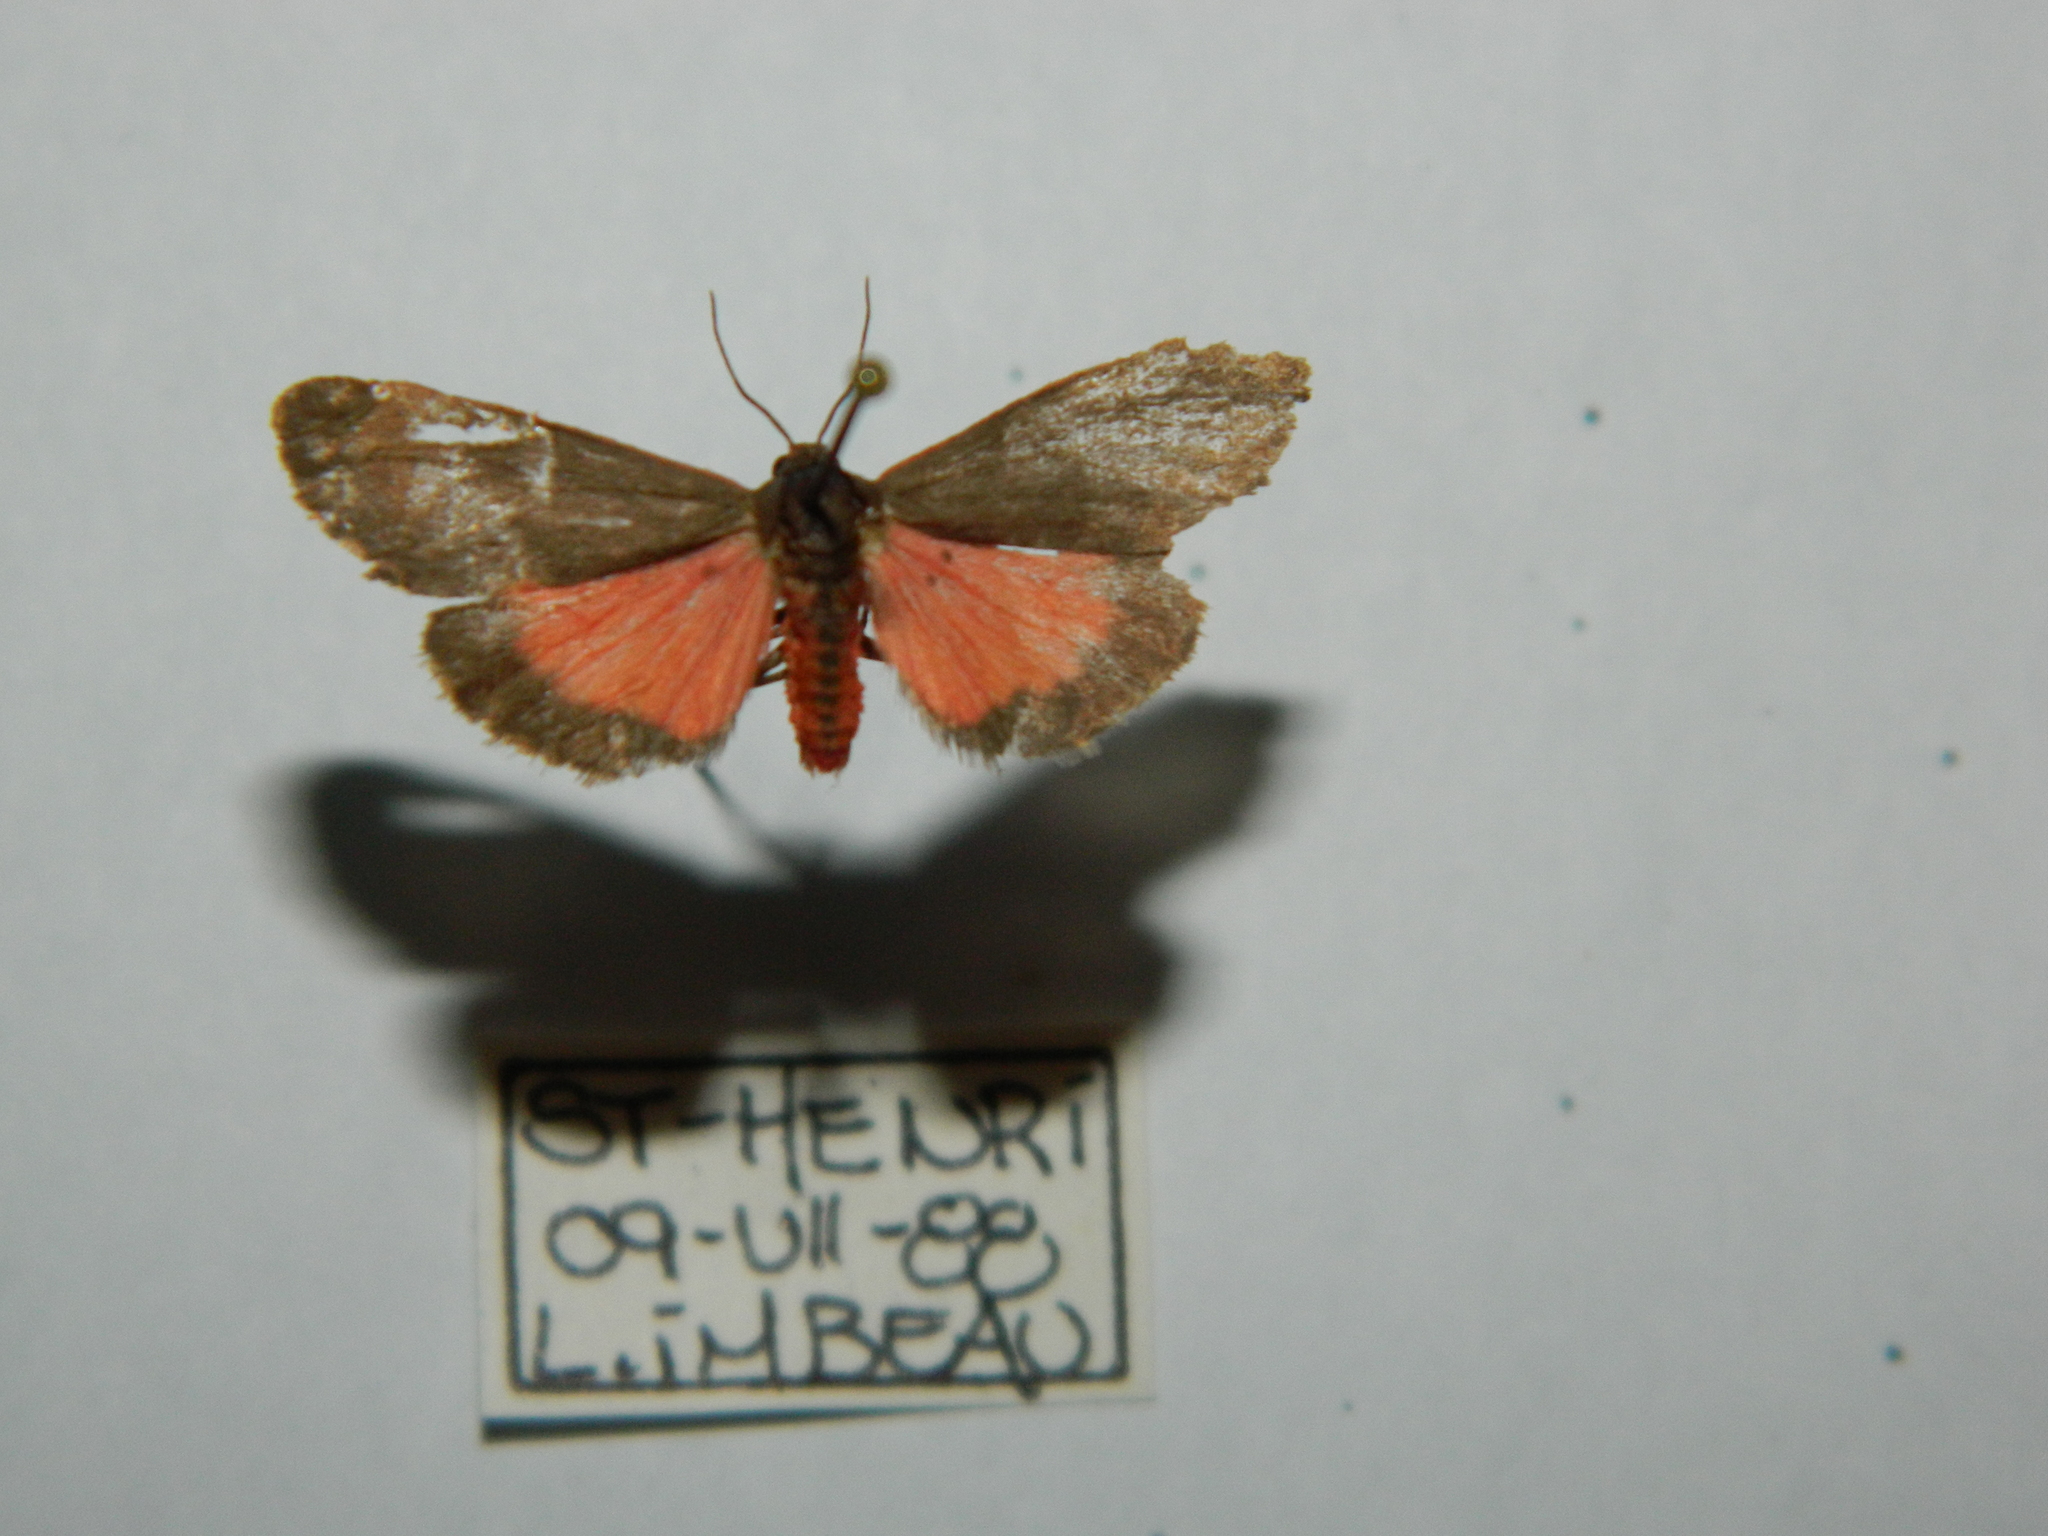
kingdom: Animalia
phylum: Arthropoda
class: Insecta
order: Lepidoptera
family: Erebidae
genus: Virbia
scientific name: Virbia laeta
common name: Joyful holomelina moth
